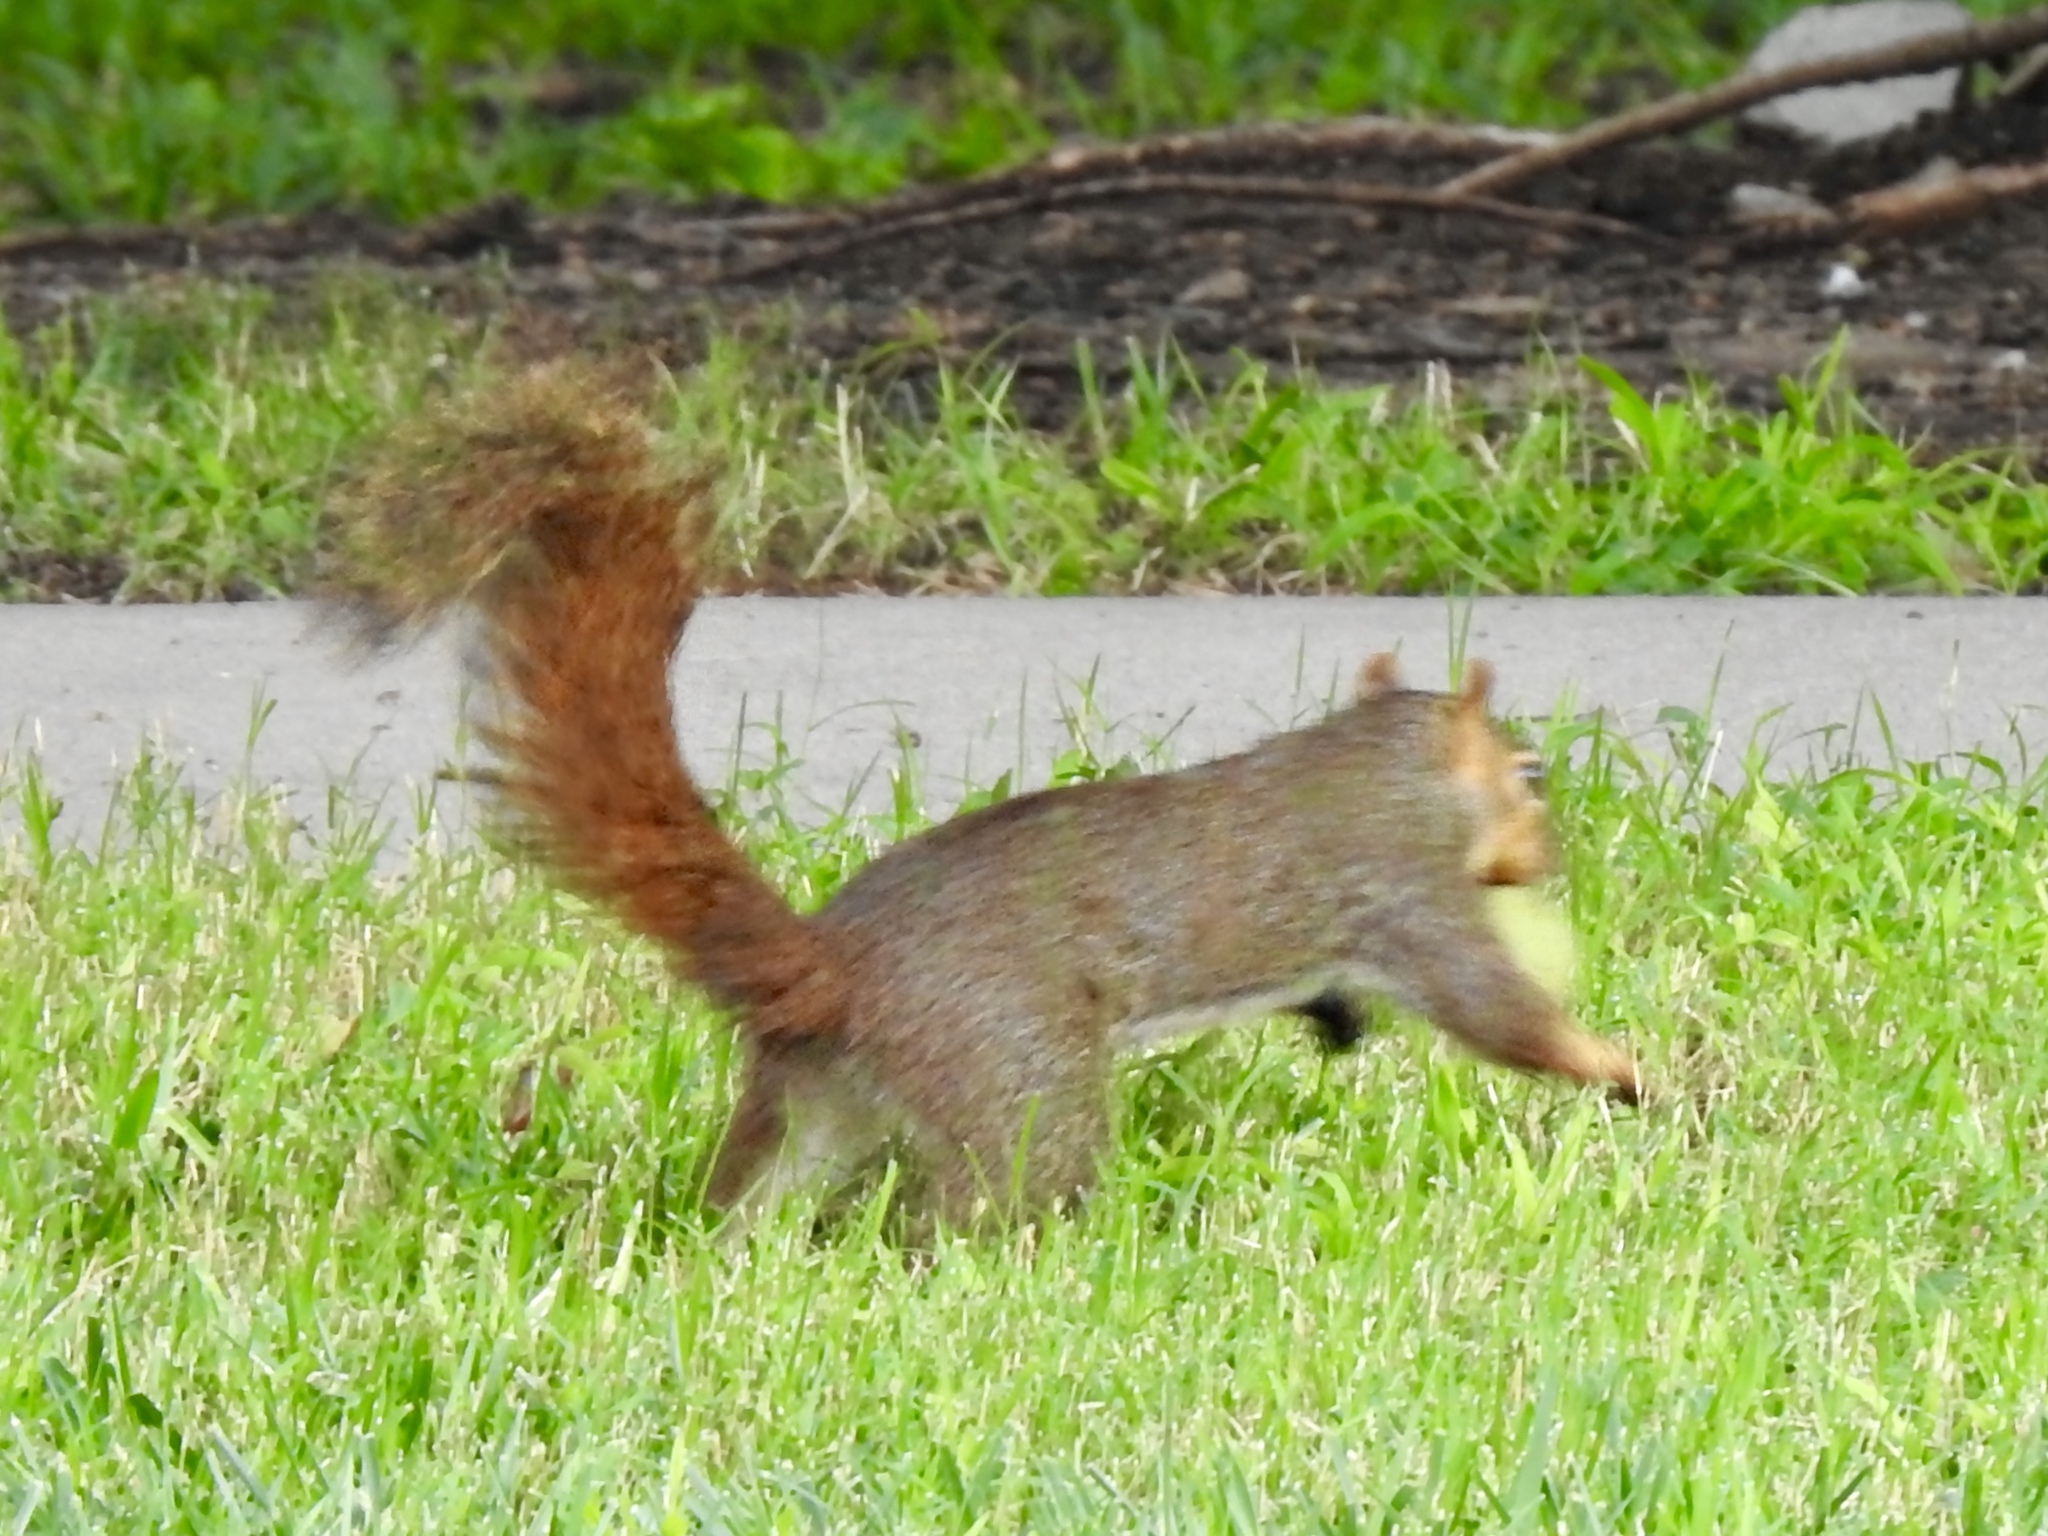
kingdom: Animalia
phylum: Chordata
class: Mammalia
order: Rodentia
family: Sciuridae
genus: Sciurus
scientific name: Sciurus niger
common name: Fox squirrel
